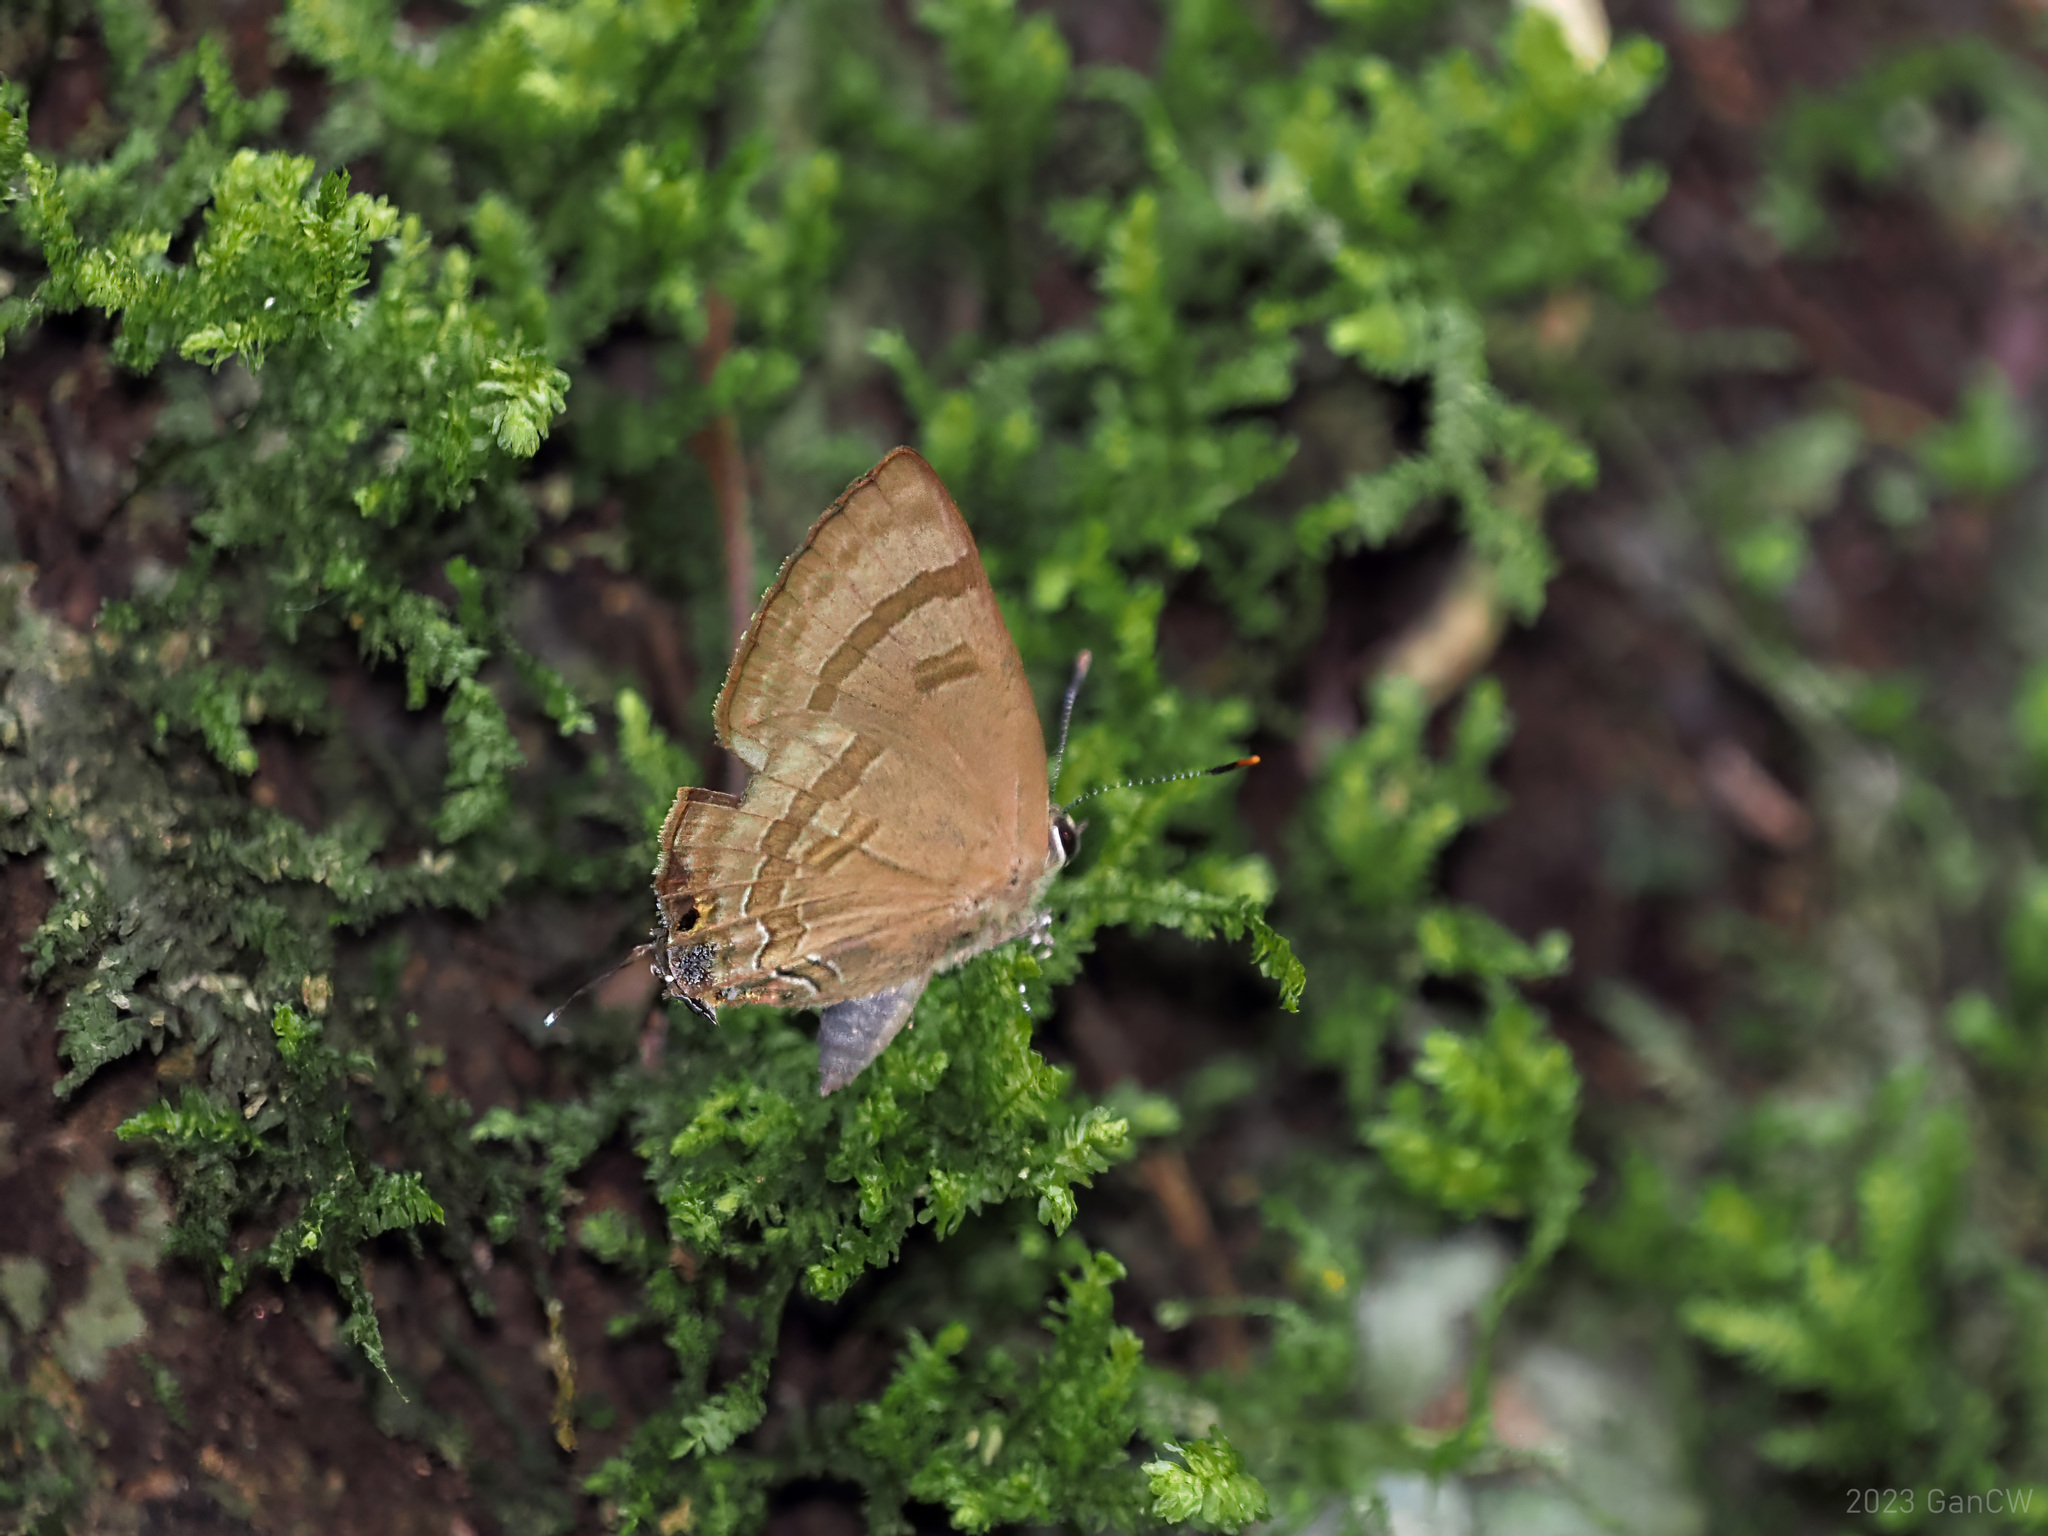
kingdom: Animalia
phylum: Arthropoda
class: Insecta
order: Lepidoptera
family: Lycaenidae
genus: Rapala
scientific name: Rapala varuna
